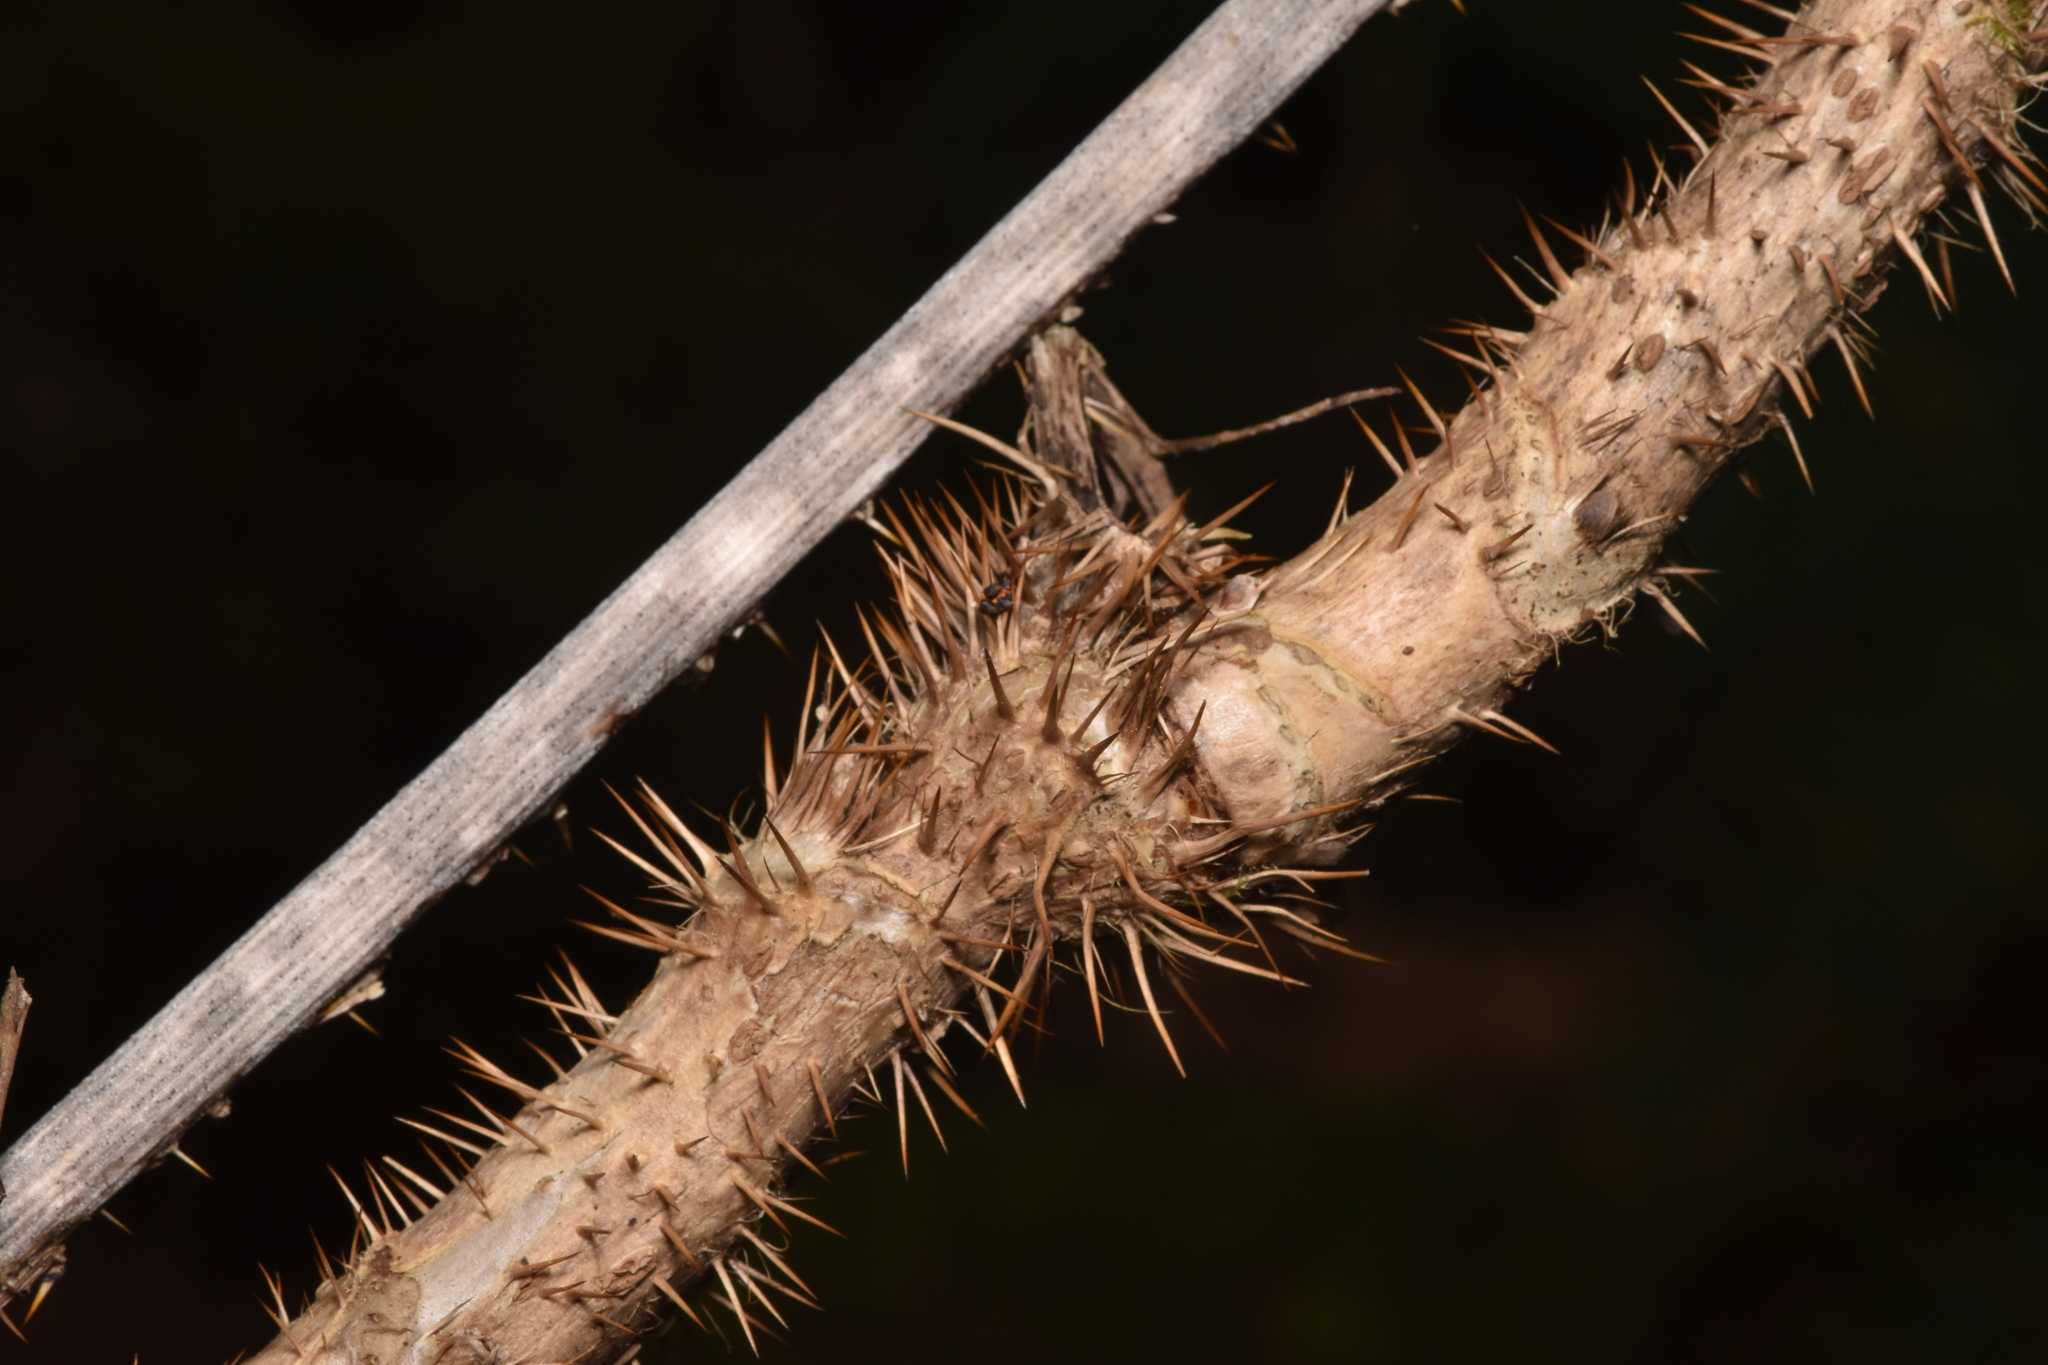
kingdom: Plantae
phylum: Tracheophyta
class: Magnoliopsida
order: Apiales
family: Araliaceae
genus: Oplopanax
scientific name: Oplopanax horridus
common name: Devil's walking-stick
